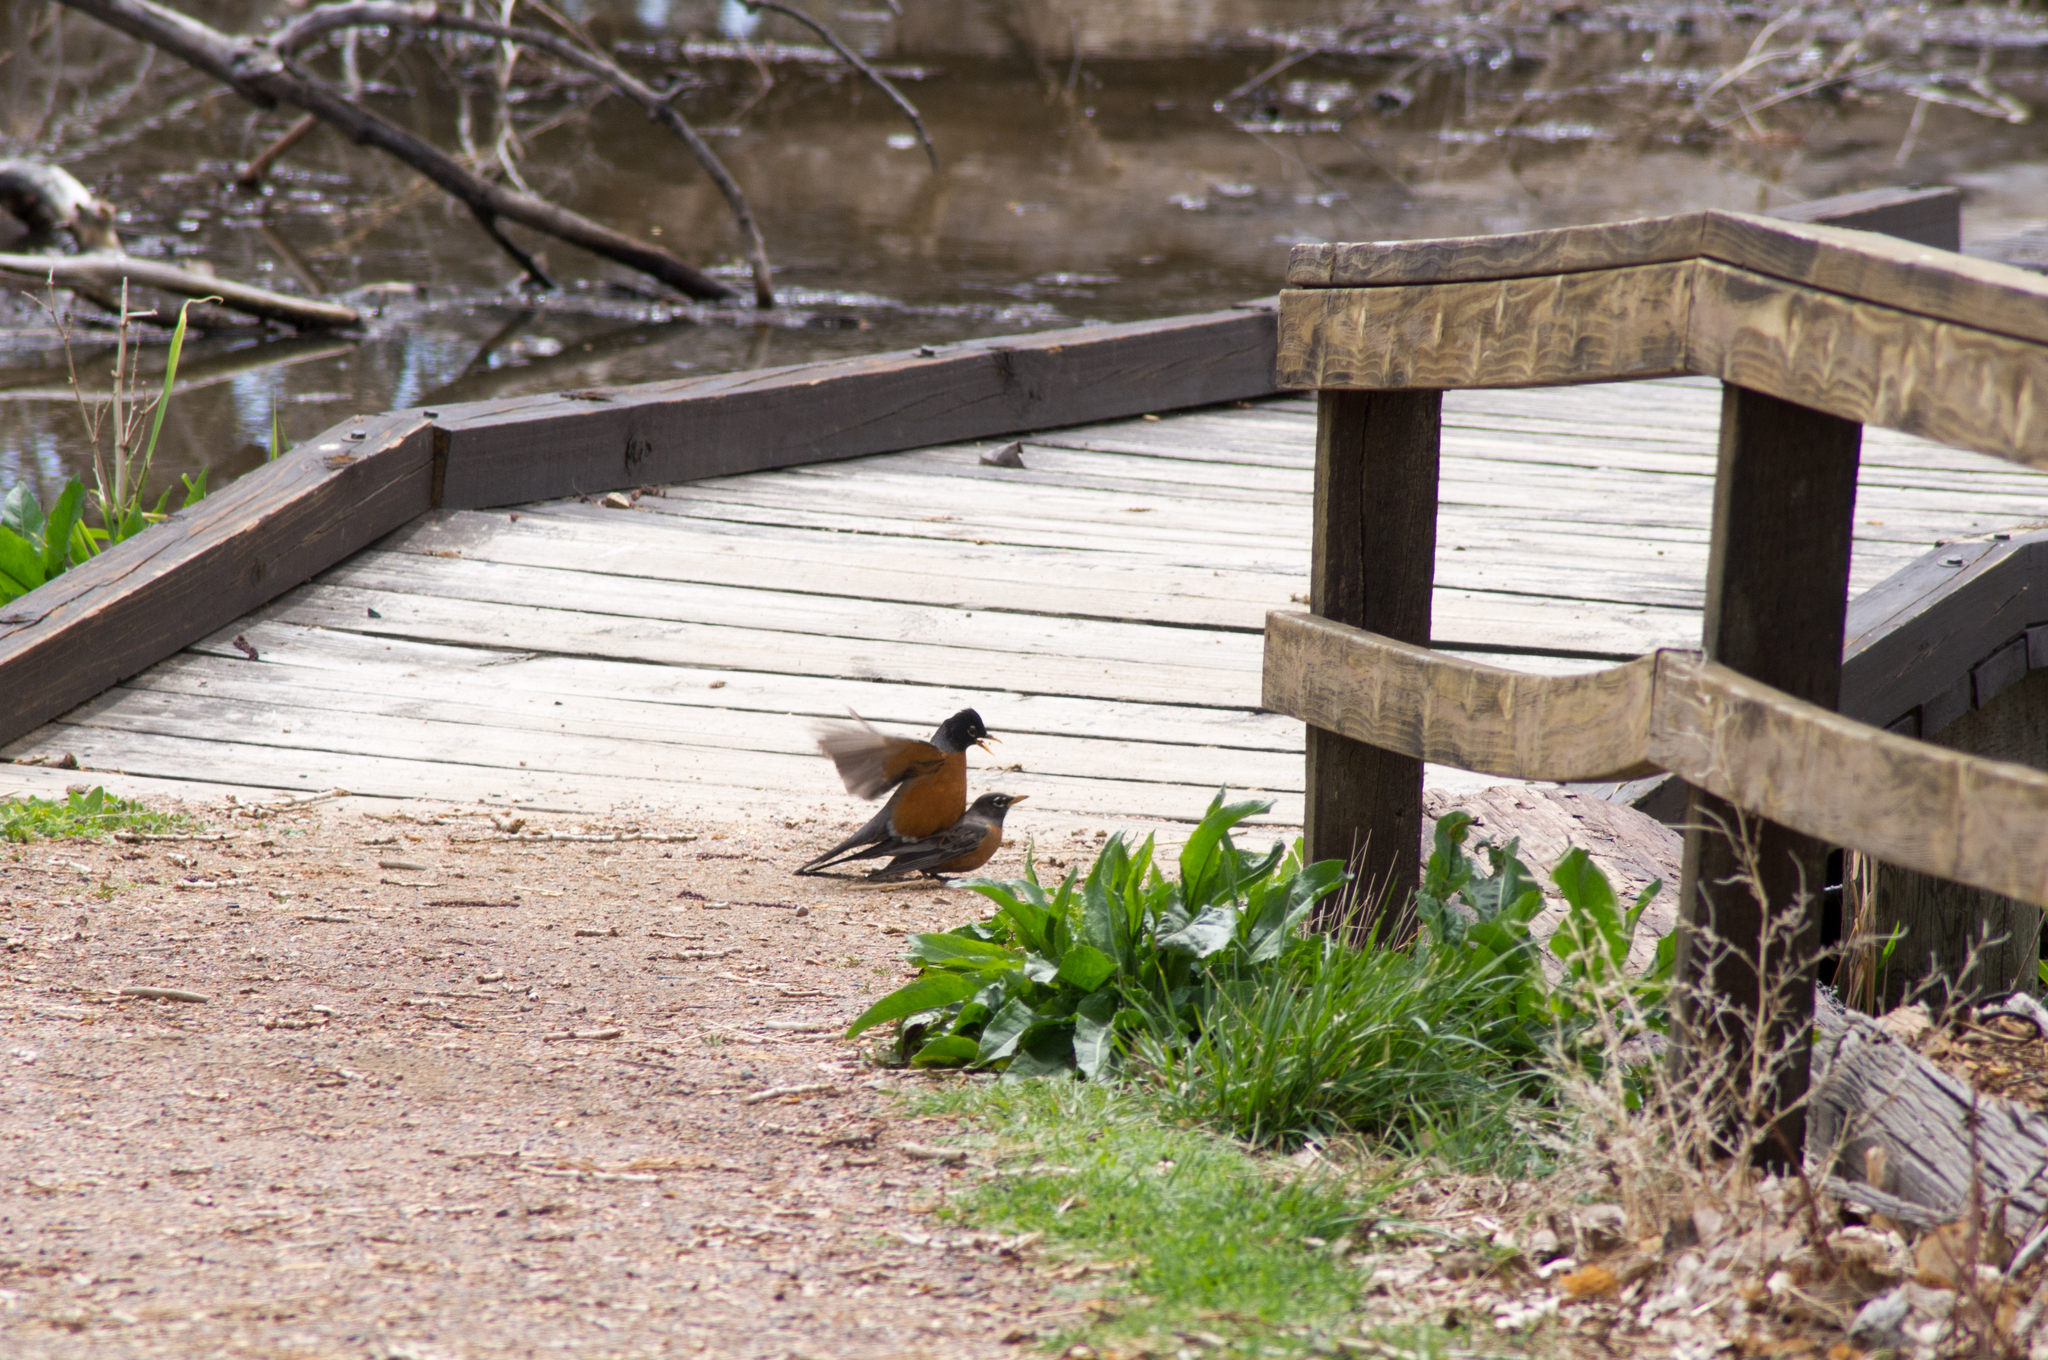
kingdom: Animalia
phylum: Chordata
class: Aves
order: Passeriformes
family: Turdidae
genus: Turdus
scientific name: Turdus migratorius
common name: American robin
